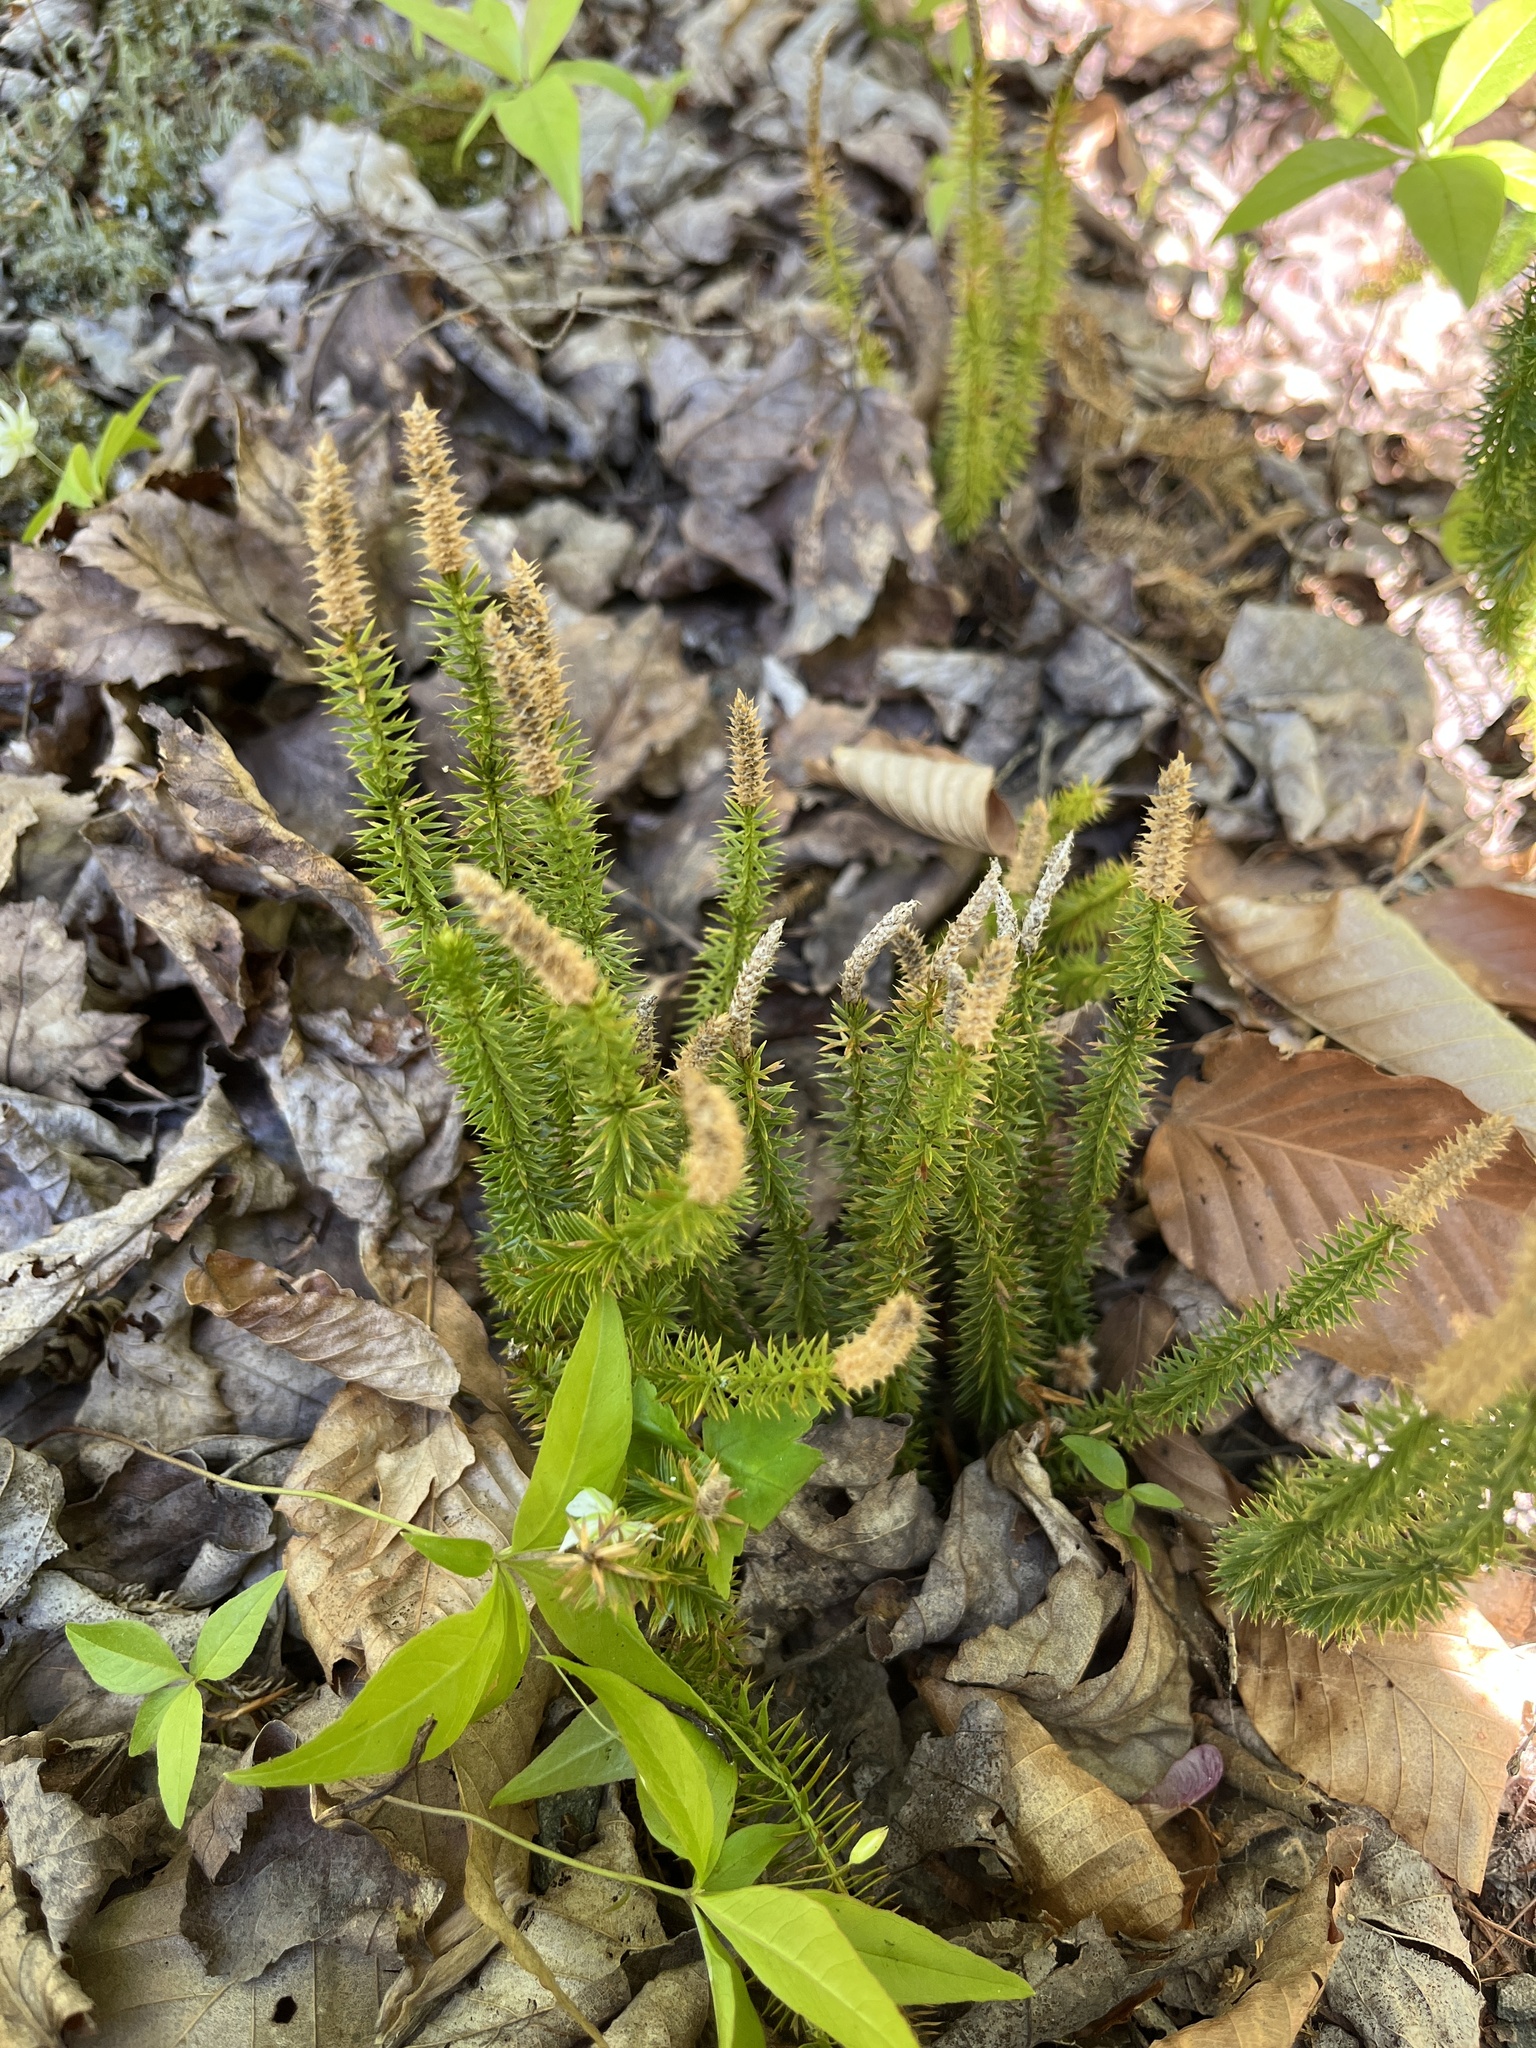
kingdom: Plantae
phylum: Tracheophyta
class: Lycopodiopsida
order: Lycopodiales
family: Lycopodiaceae
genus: Spinulum
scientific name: Spinulum annotinum
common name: Interrupted club-moss
